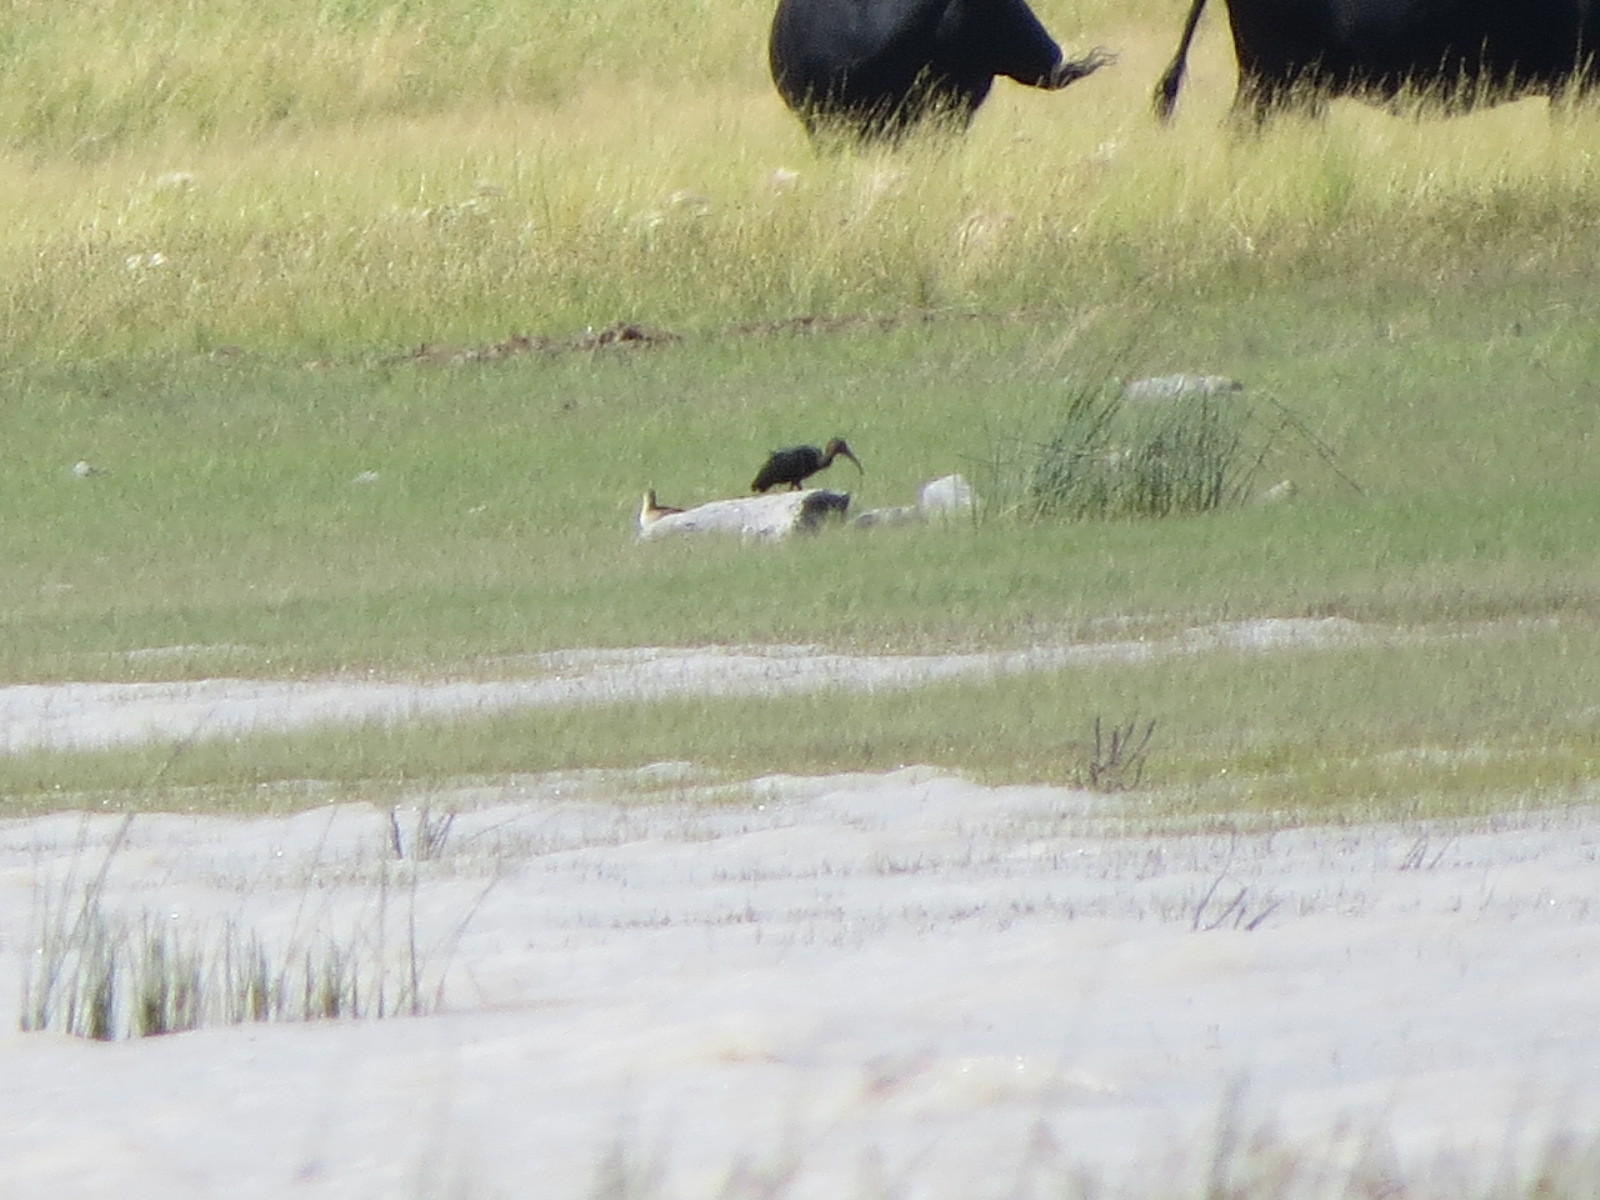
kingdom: Animalia
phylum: Chordata
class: Aves
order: Pelecaniformes
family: Threskiornithidae
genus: Plegadis
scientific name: Plegadis chihi
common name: White-faced ibis
